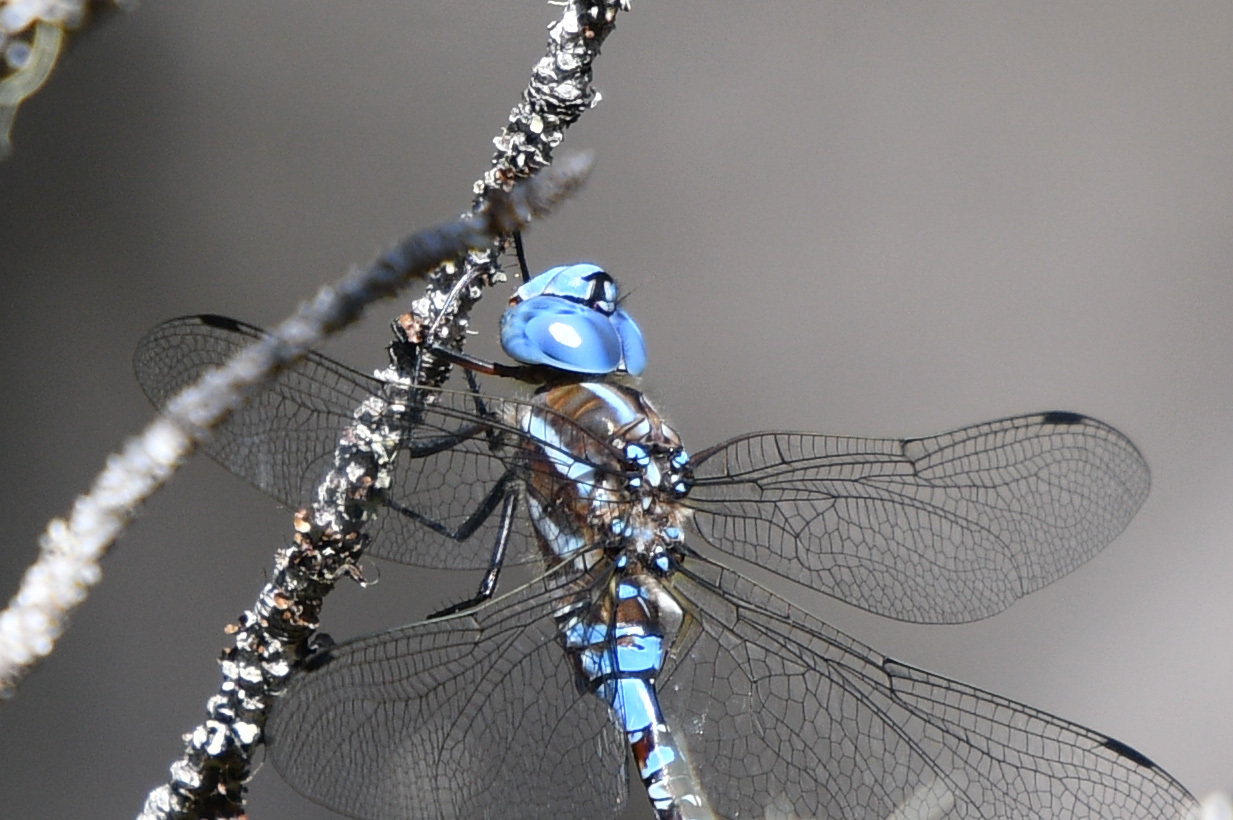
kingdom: Animalia
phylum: Arthropoda
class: Insecta
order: Odonata
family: Aeshnidae
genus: Rhionaeschna
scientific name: Rhionaeschna multicolor
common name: Blue-eyed darner
